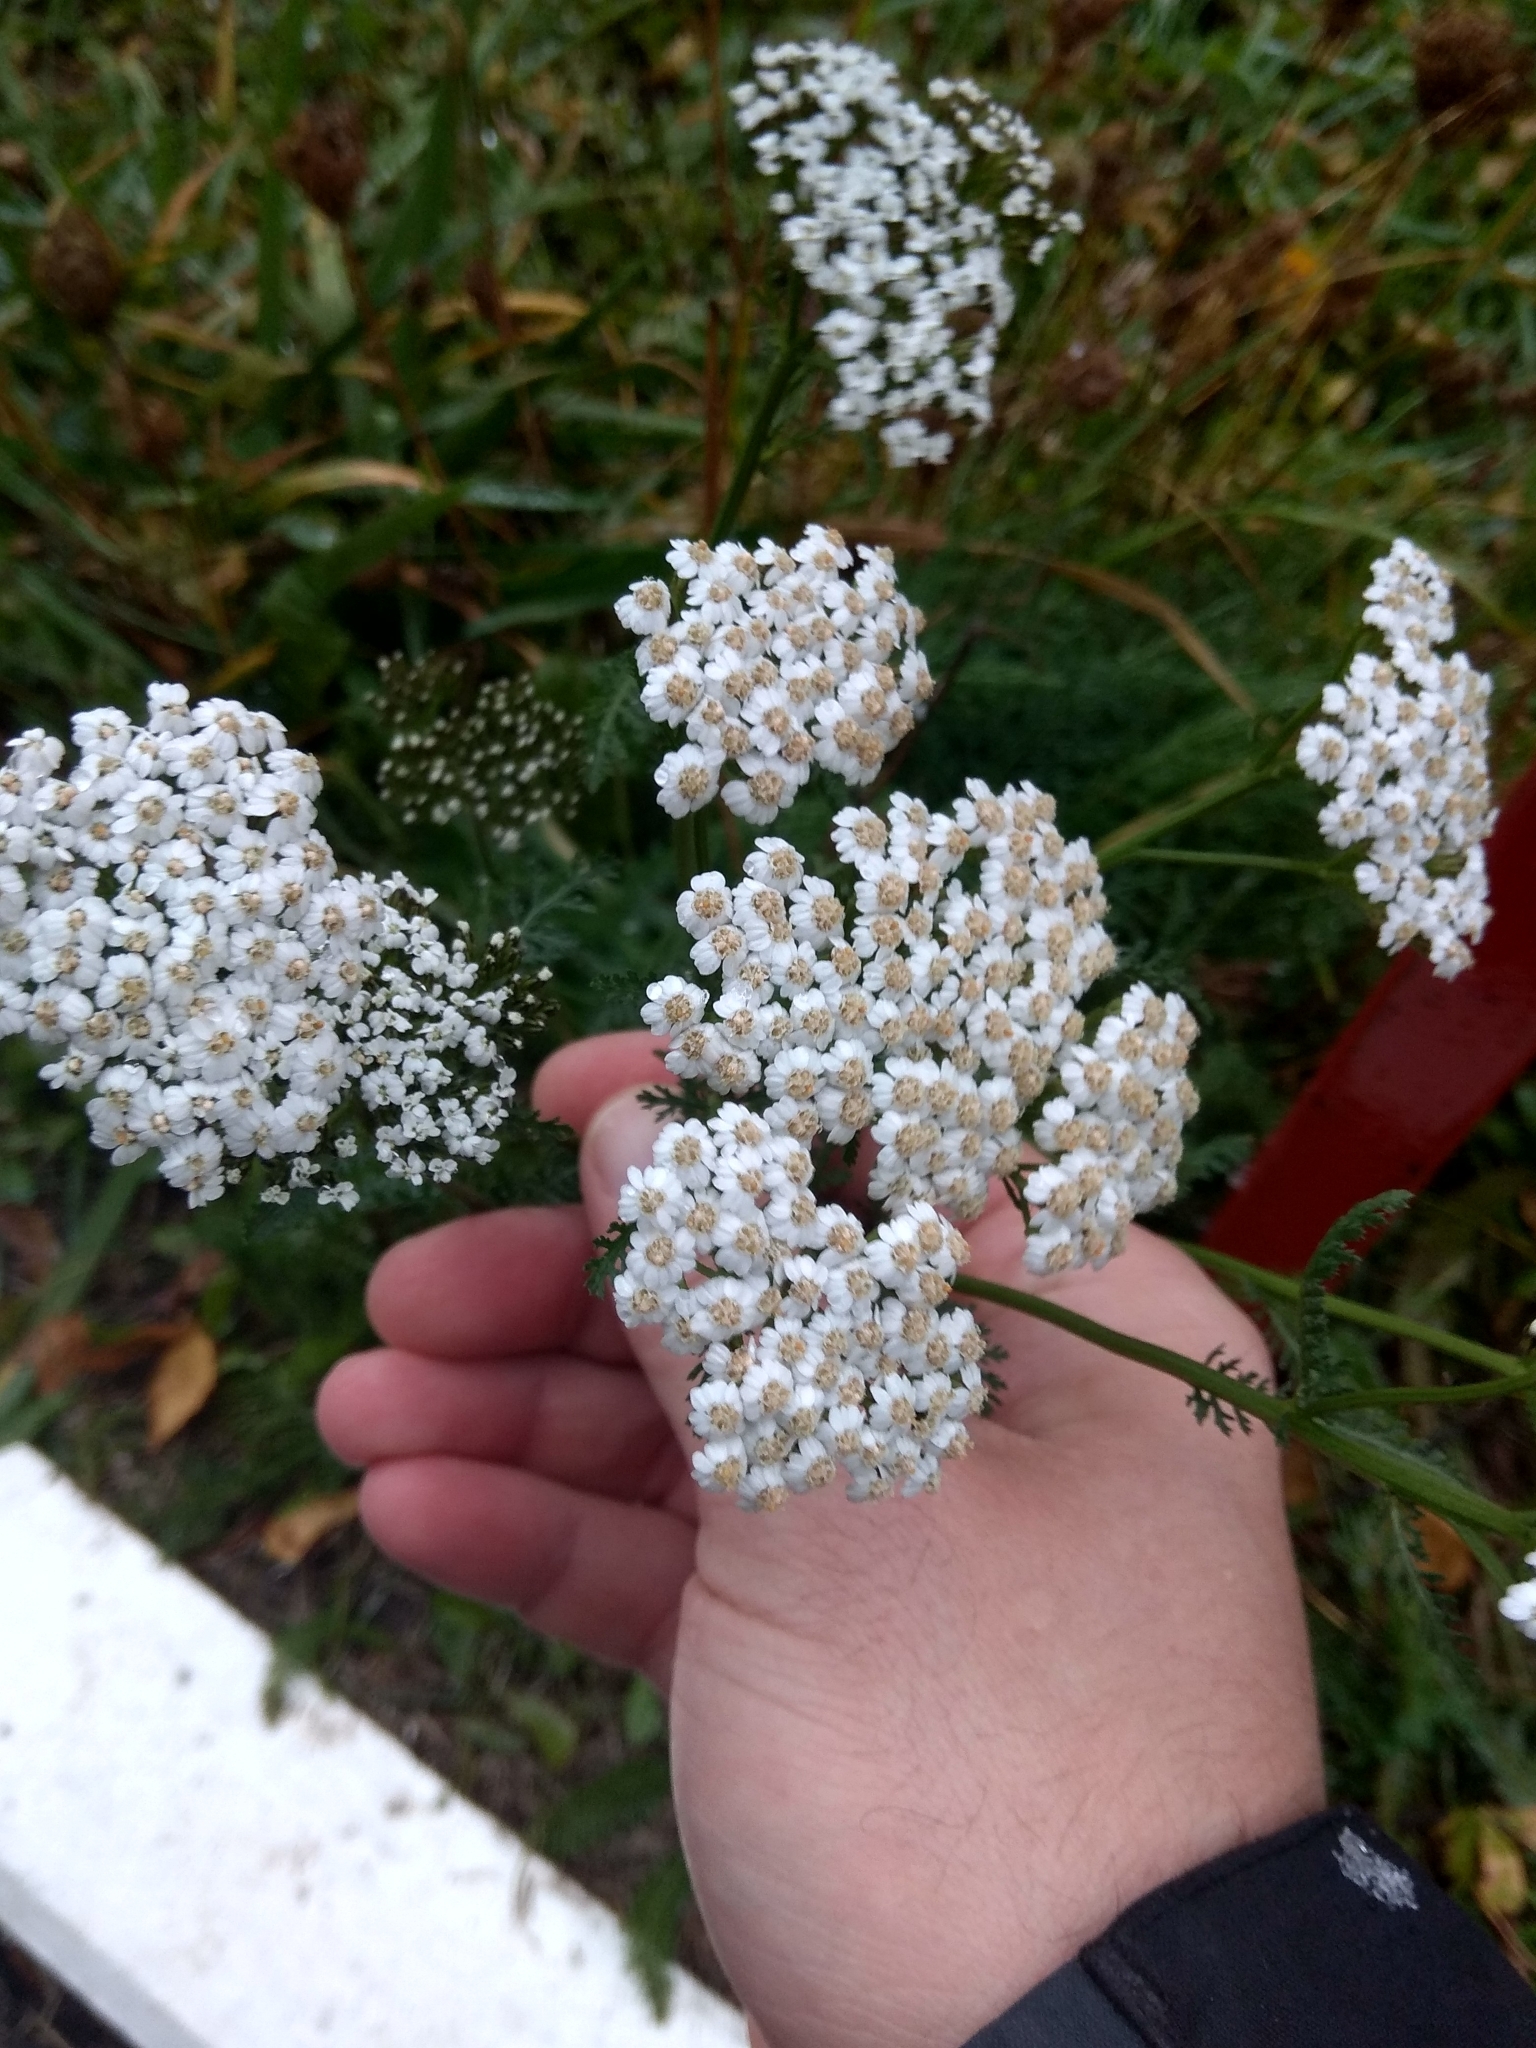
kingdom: Plantae
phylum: Tracheophyta
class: Magnoliopsida
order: Asterales
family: Asteraceae
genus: Achillea
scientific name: Achillea millefolium
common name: Yarrow
